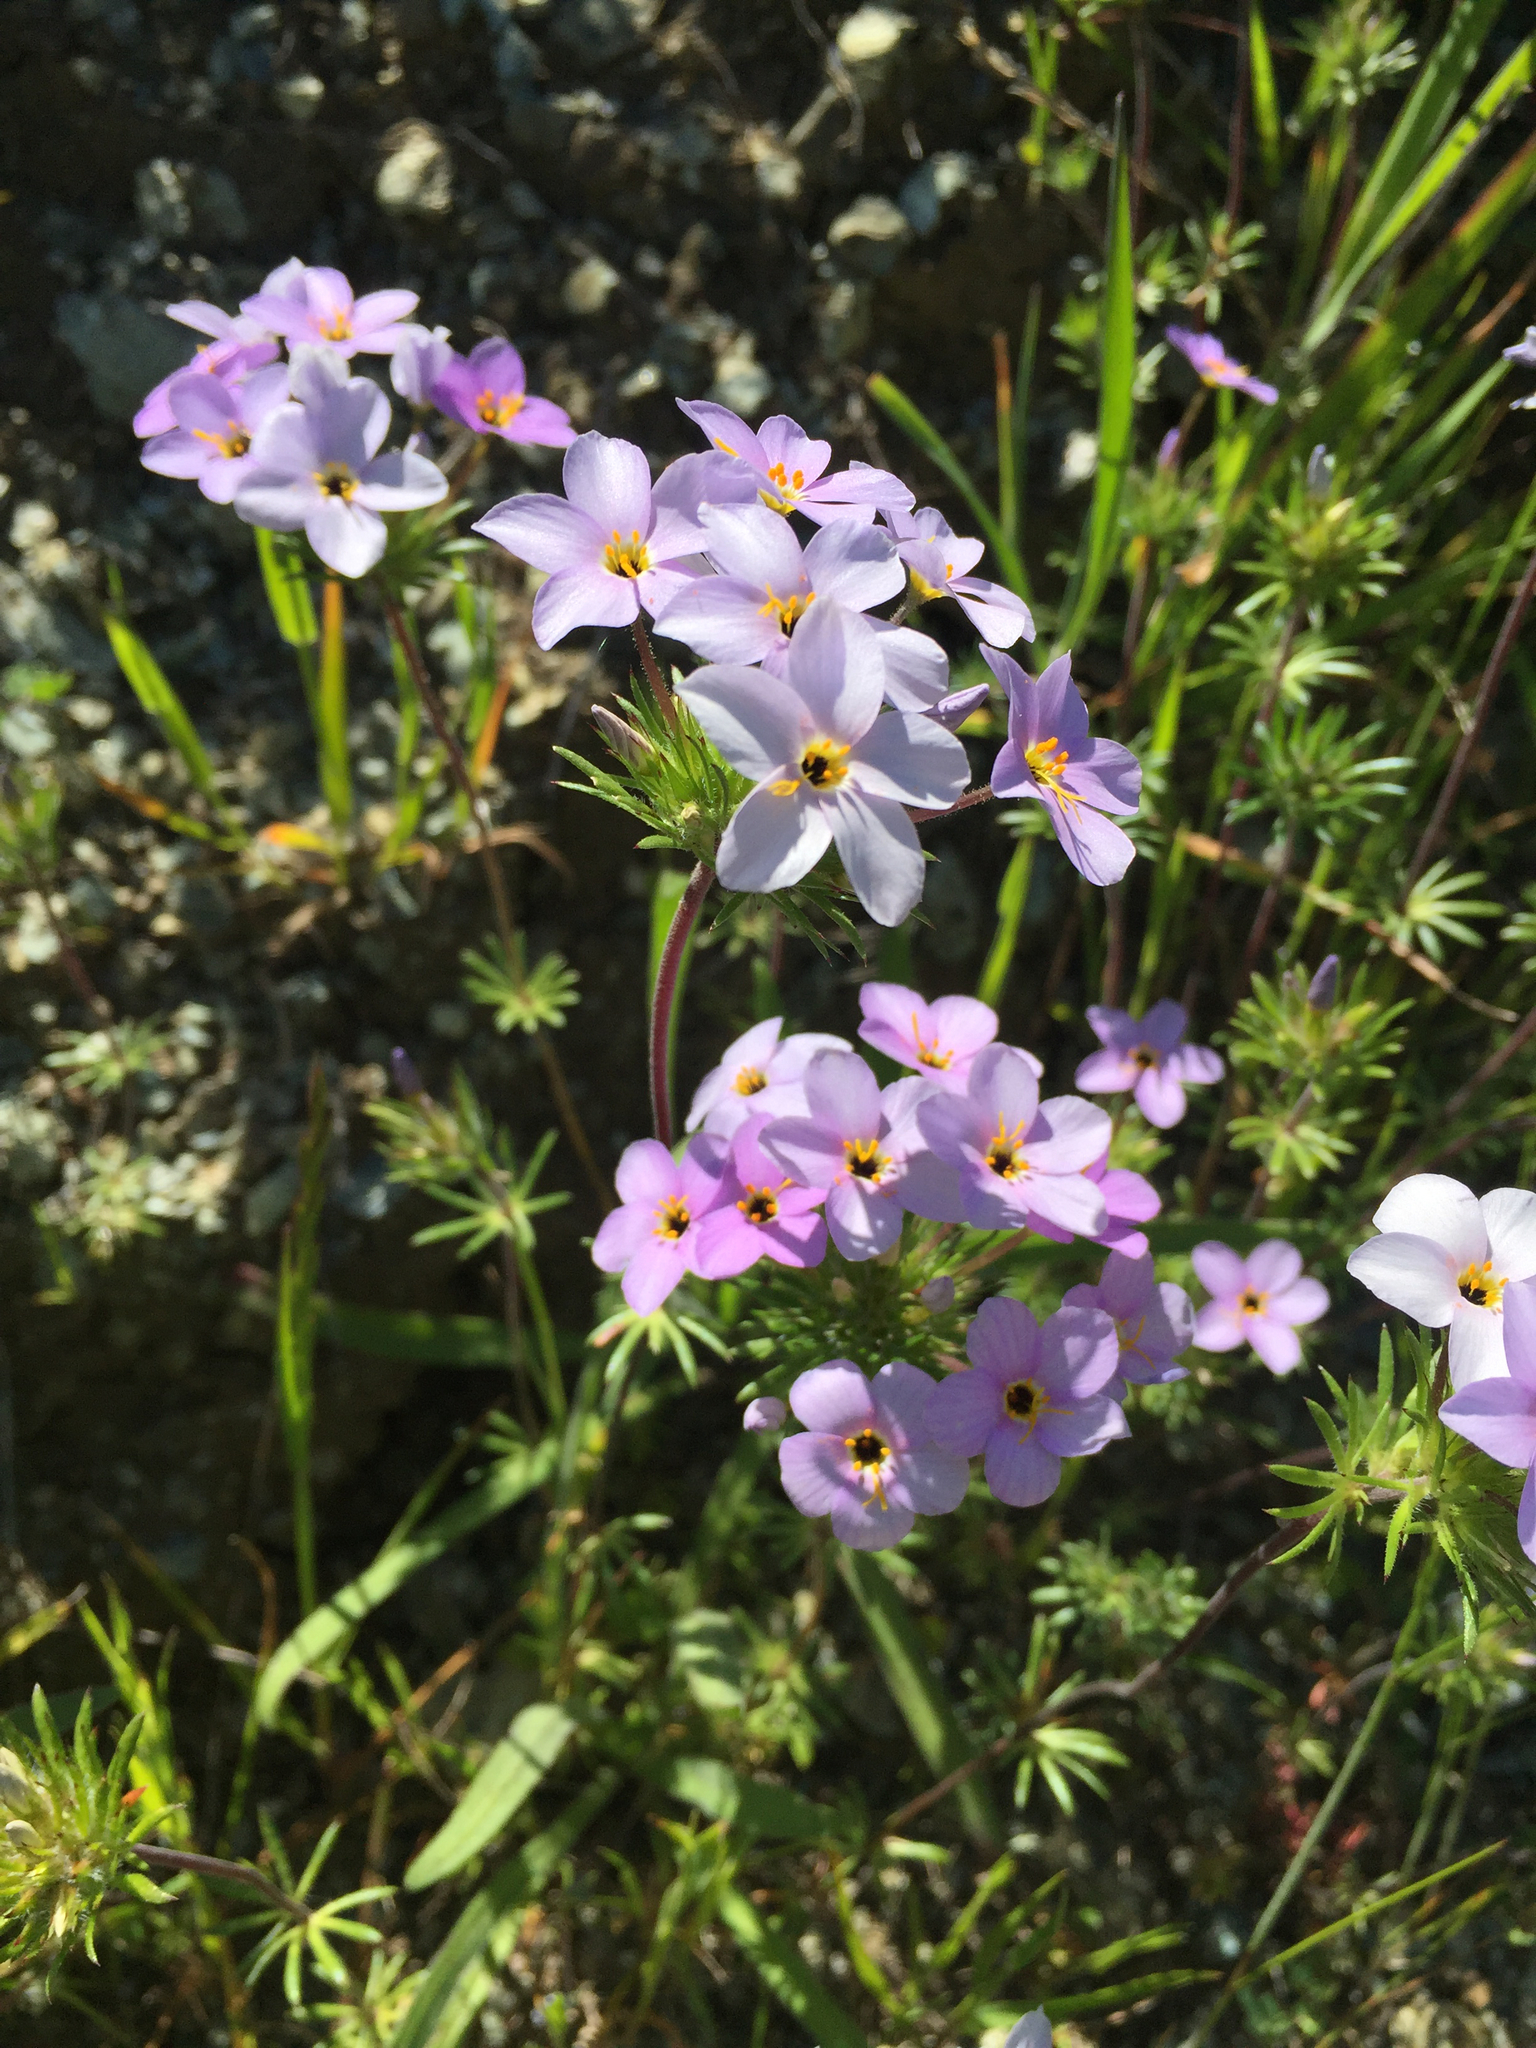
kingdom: Plantae
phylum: Tracheophyta
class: Magnoliopsida
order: Ericales
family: Polemoniaceae
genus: Leptosiphon
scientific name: Leptosiphon androsaceus
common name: False babystars
